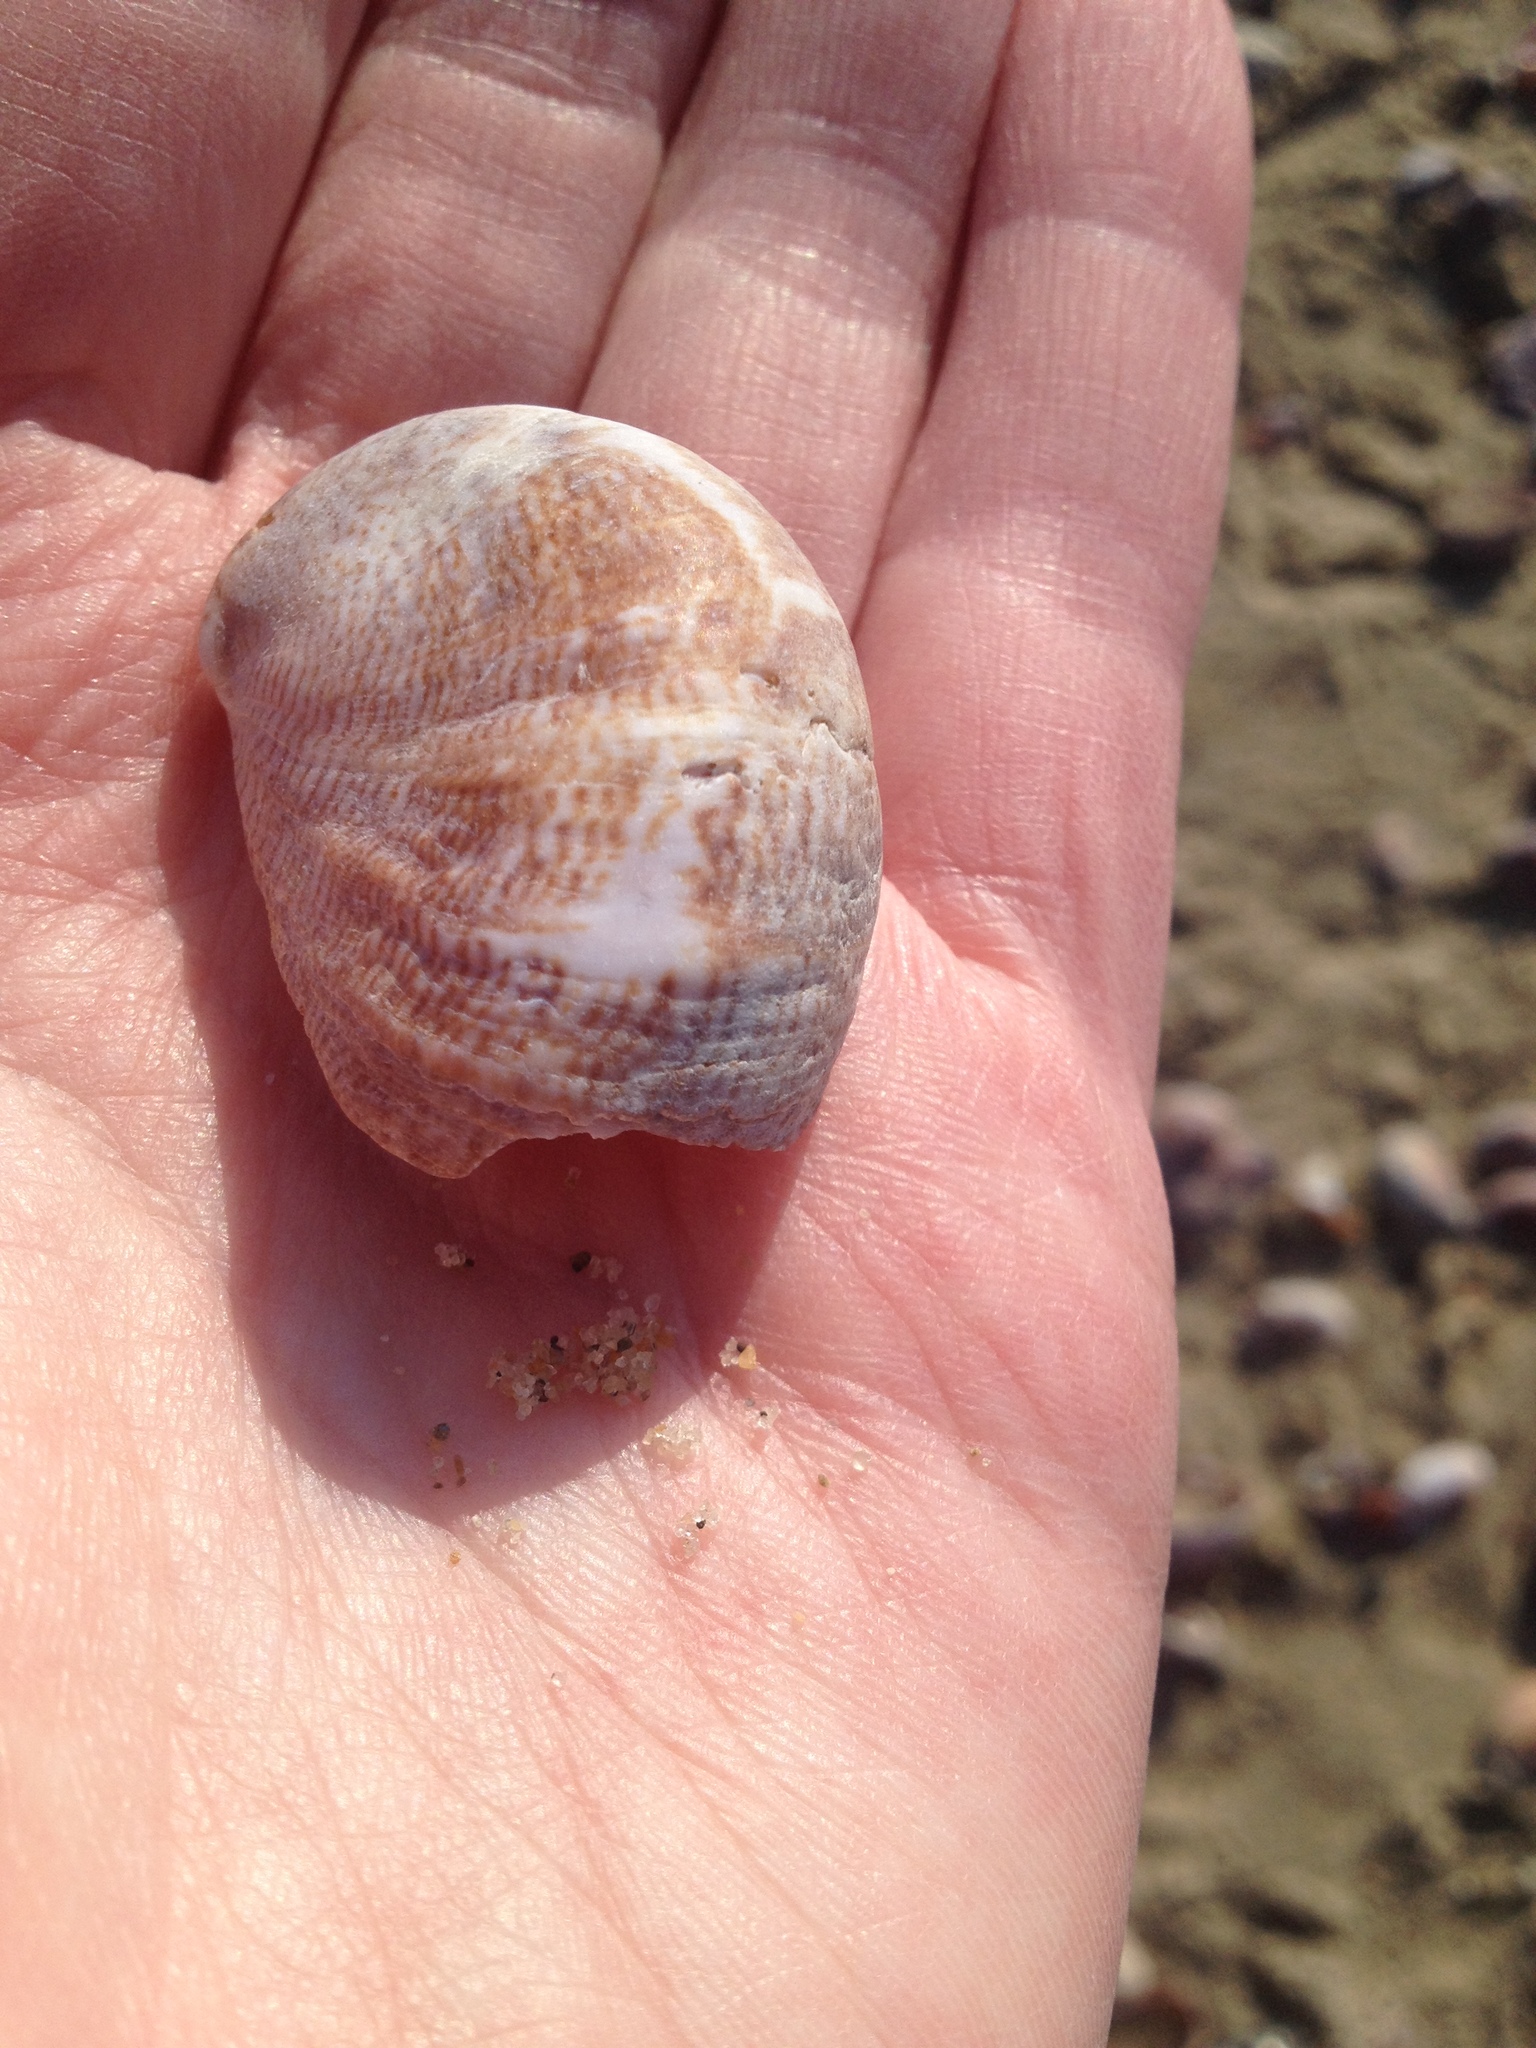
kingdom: Animalia
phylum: Mollusca
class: Gastropoda
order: Littorinimorpha
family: Calyptraeidae
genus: Crepidula
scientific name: Crepidula fornicata
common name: Slipper limpet
